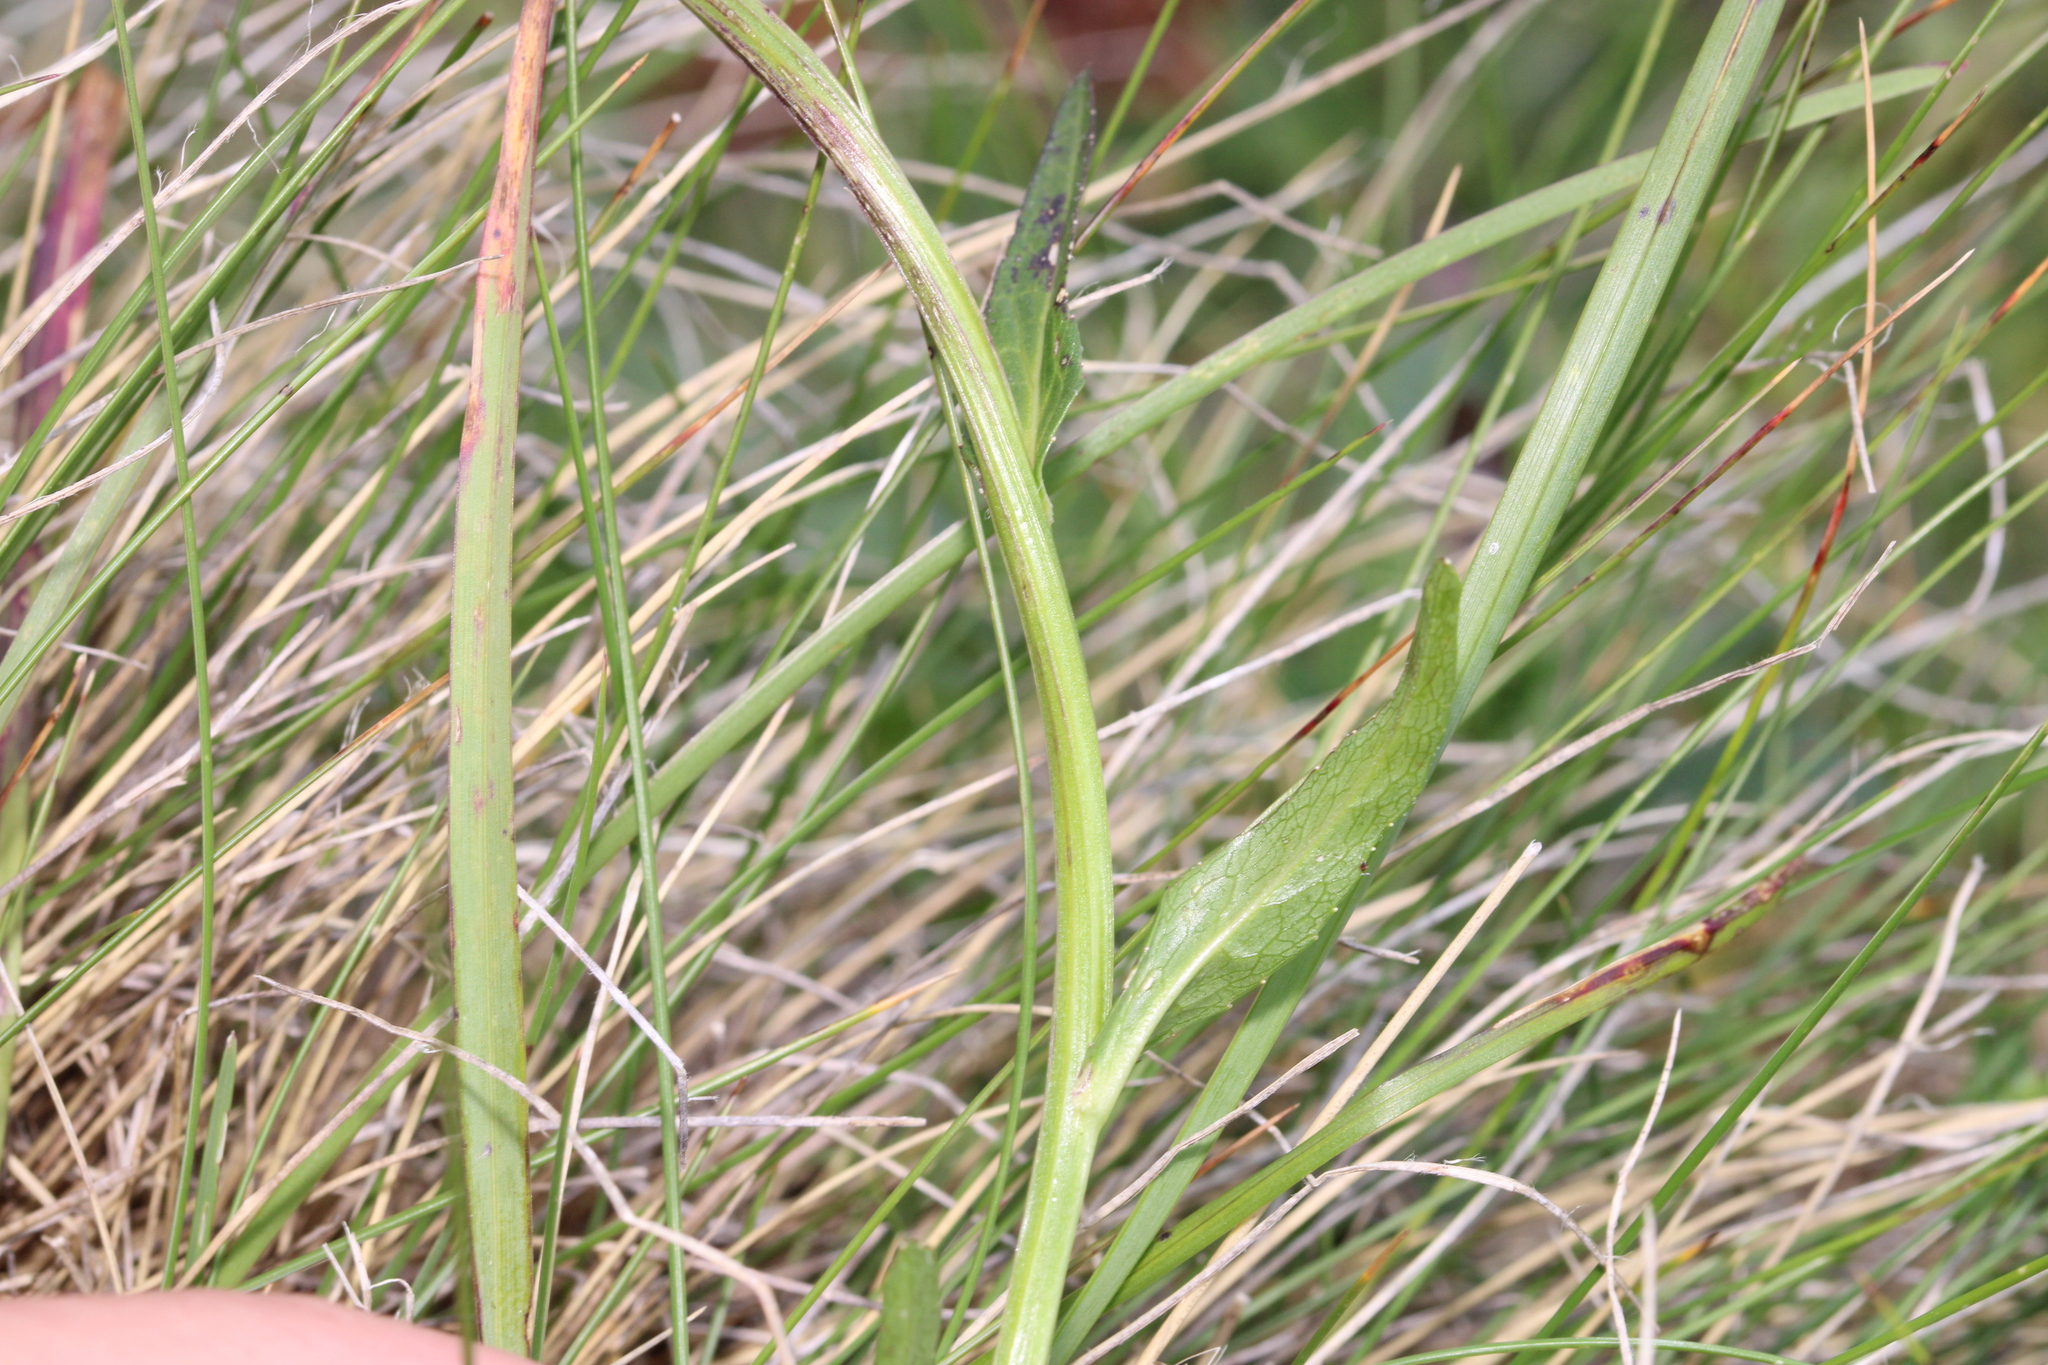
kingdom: Plantae
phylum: Tracheophyta
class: Magnoliopsida
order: Asterales
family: Campanulaceae
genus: Phyteuma
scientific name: Phyteuma orbiculare
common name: Round-headed rampion
